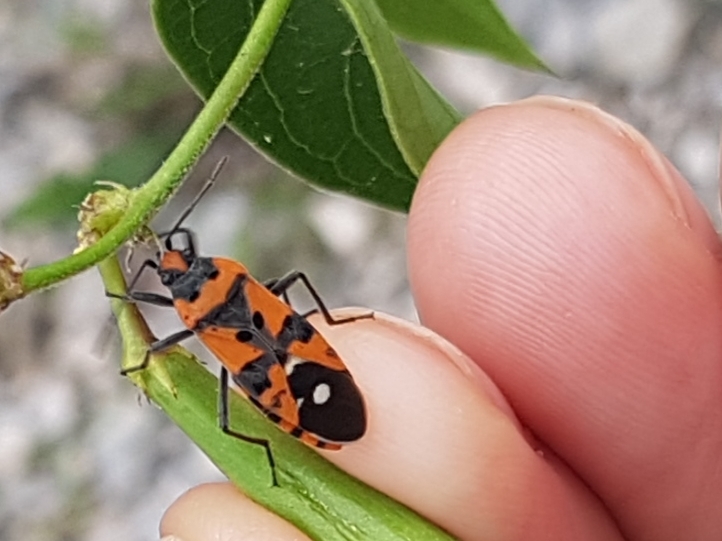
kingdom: Animalia
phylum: Arthropoda
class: Insecta
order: Hemiptera
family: Lygaeidae
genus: Lygaeus
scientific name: Lygaeus equestris
